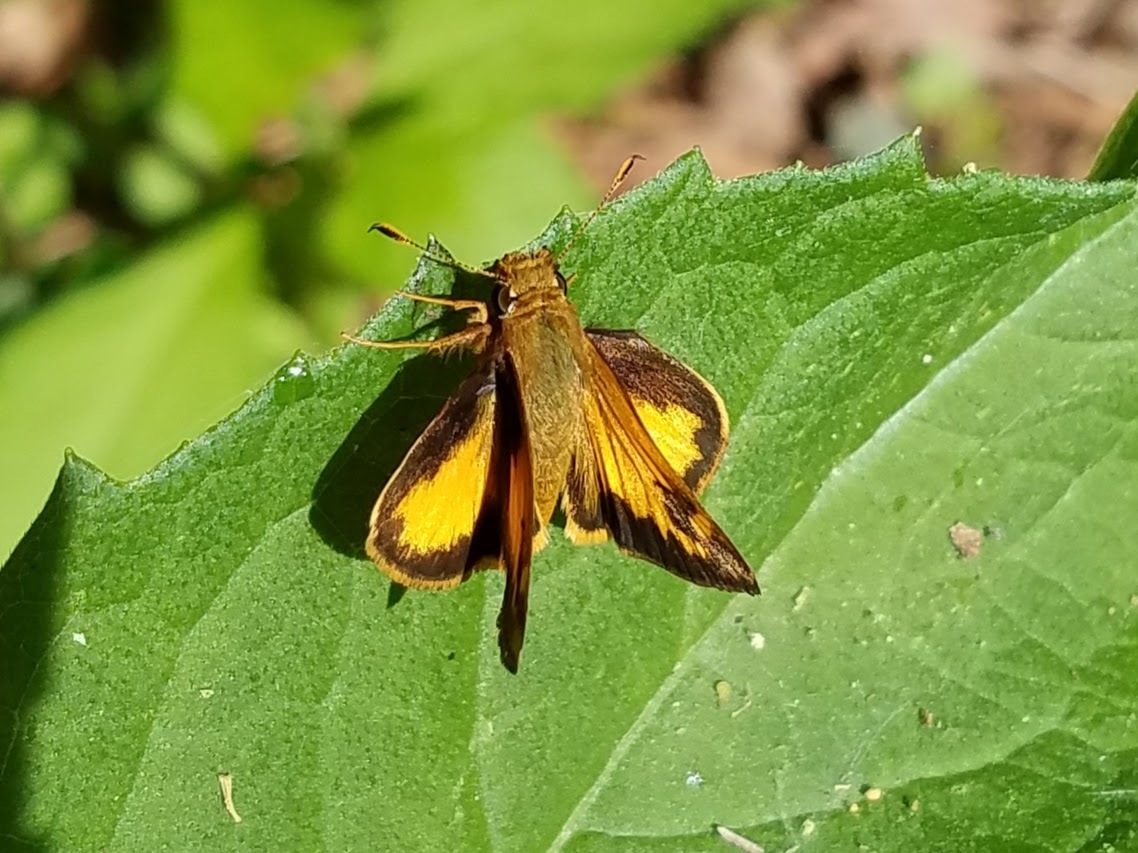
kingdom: Animalia
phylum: Arthropoda
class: Insecta
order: Lepidoptera
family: Hesperiidae
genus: Lon
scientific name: Lon zabulon
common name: Zabulon skipper
